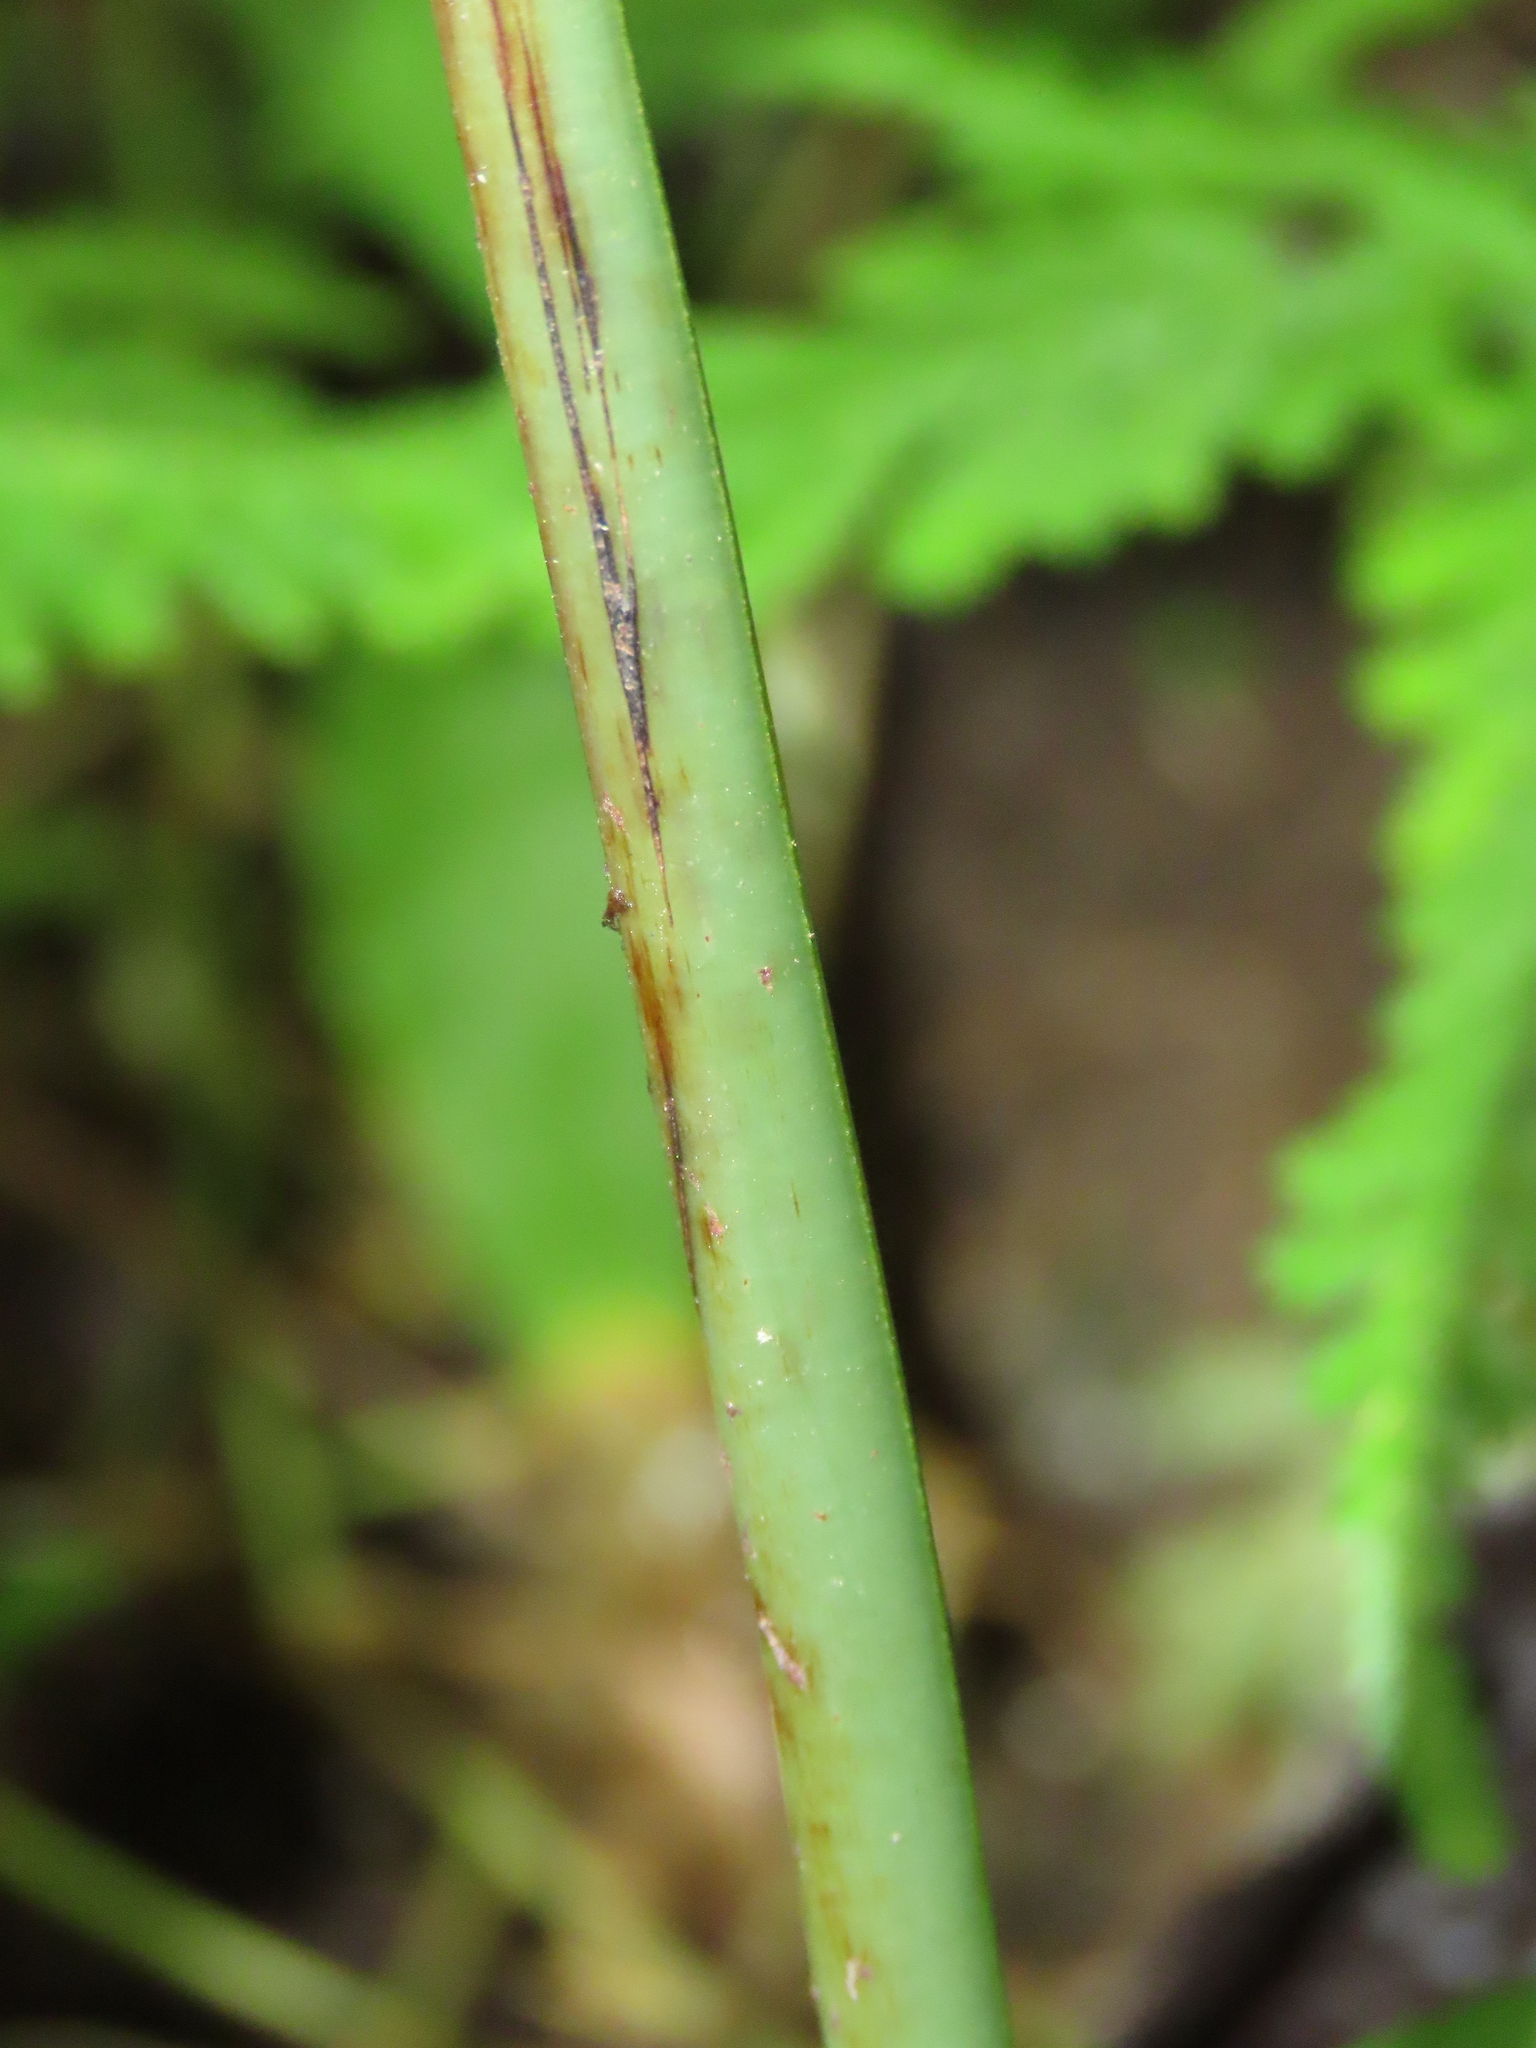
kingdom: Plantae
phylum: Tracheophyta
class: Polypodiopsida
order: Polypodiales
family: Polypodiaceae
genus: Leptochilus
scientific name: Leptochilus ellipticus
